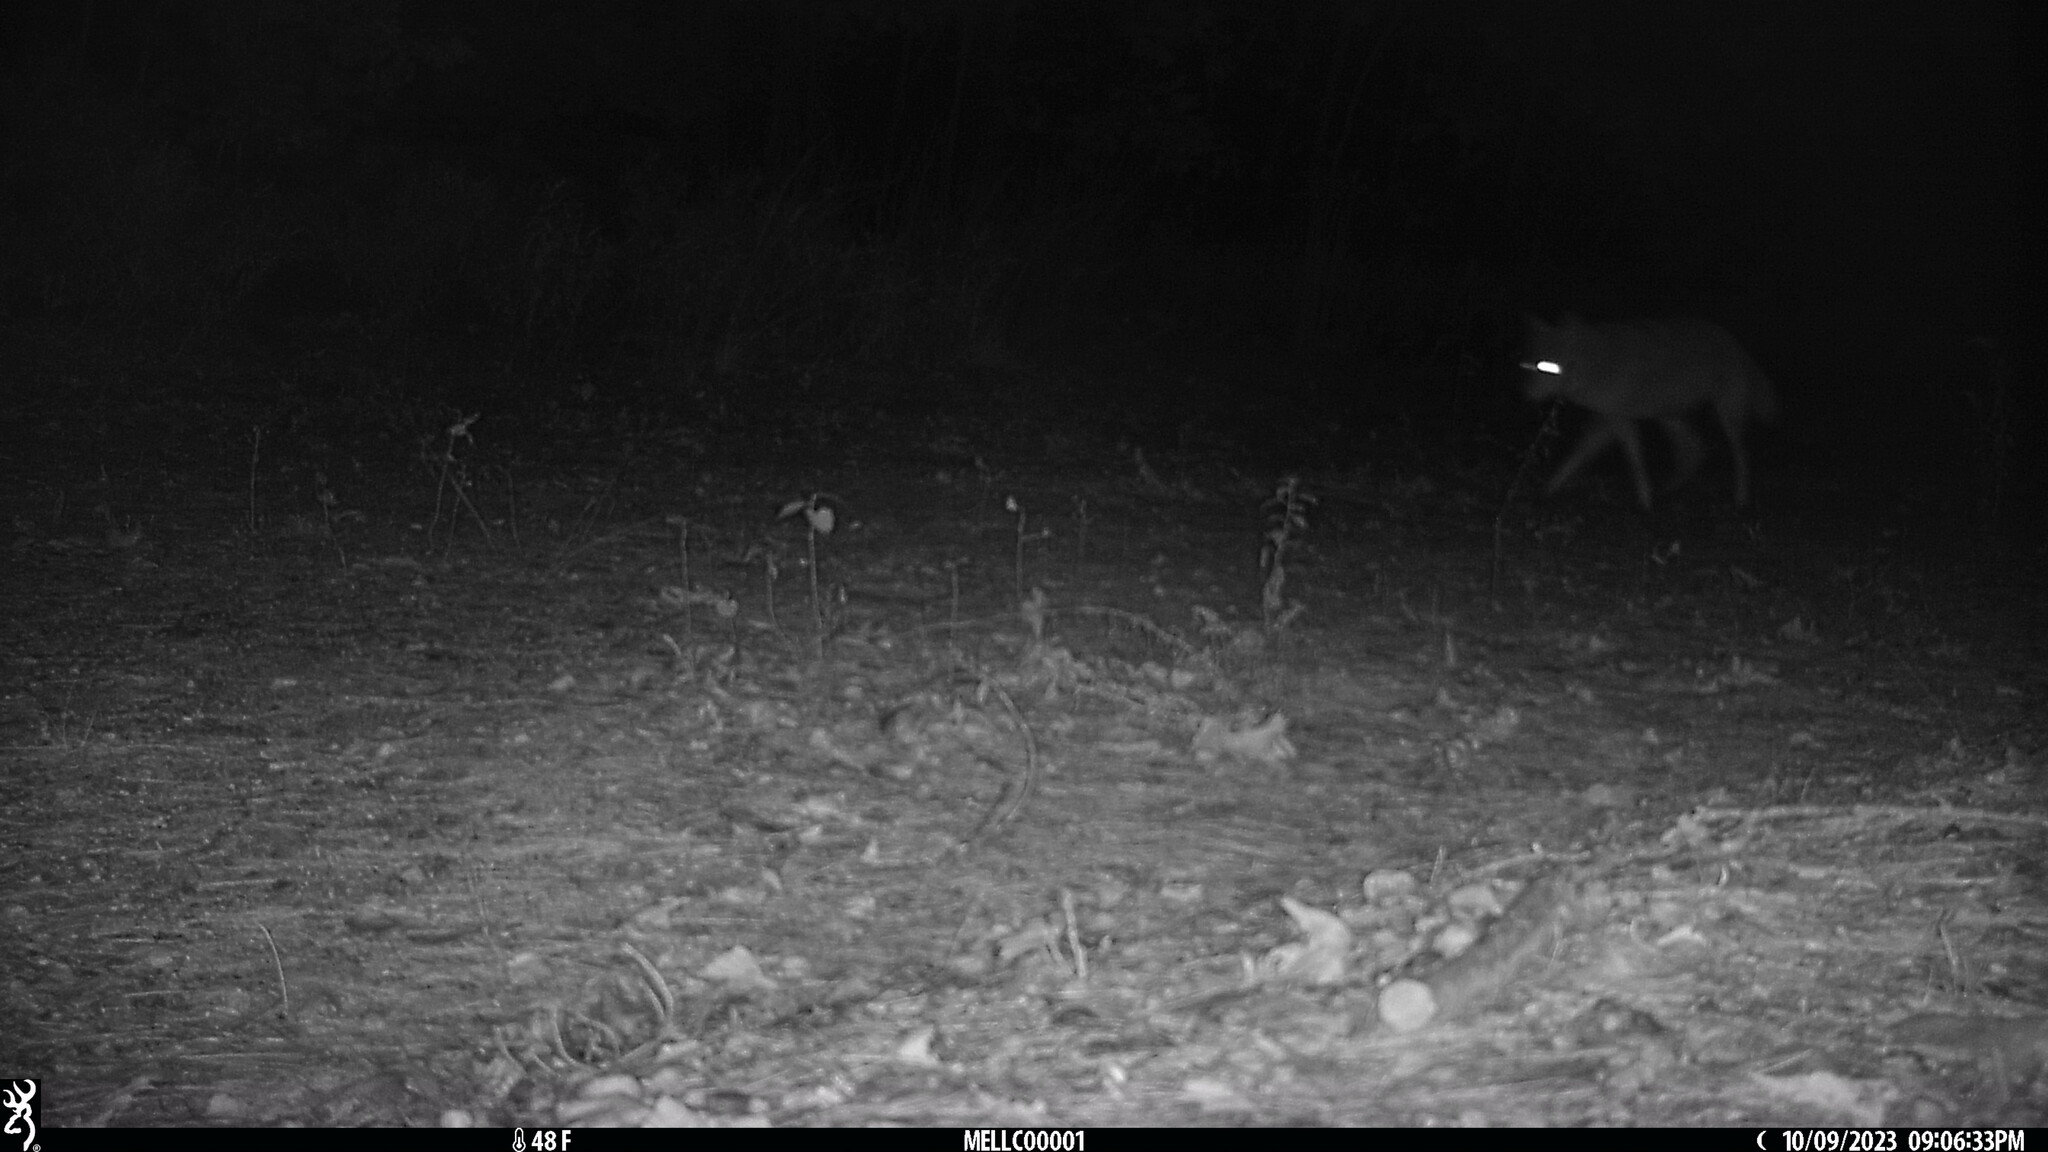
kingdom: Animalia
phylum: Chordata
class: Mammalia
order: Carnivora
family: Canidae
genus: Canis
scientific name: Canis latrans
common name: Coyote
